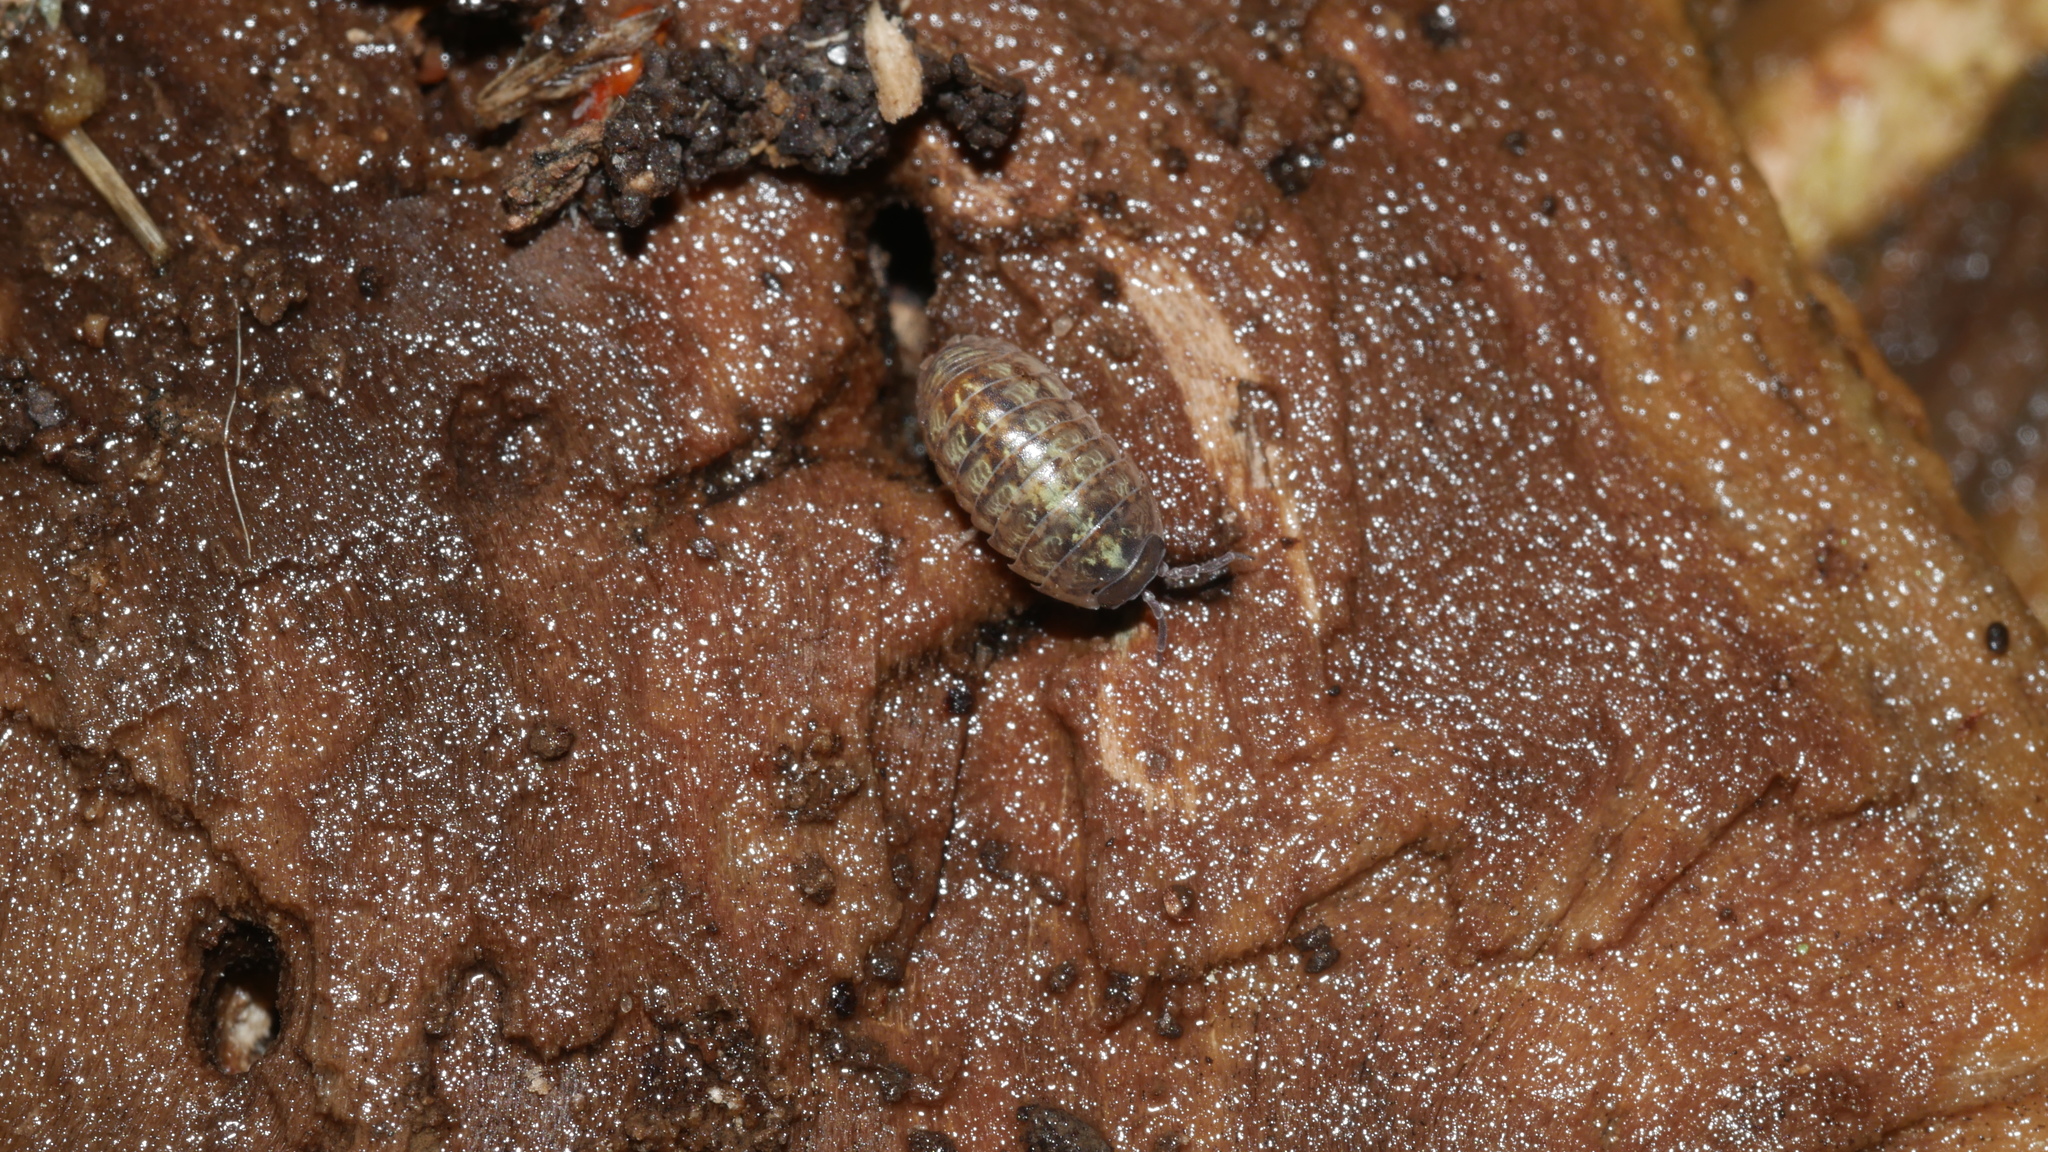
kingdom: Animalia
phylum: Arthropoda
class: Malacostraca
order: Isopoda
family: Armadillidiidae
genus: Armadillidium
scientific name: Armadillidium vulgare
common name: Common pill woodlouse
